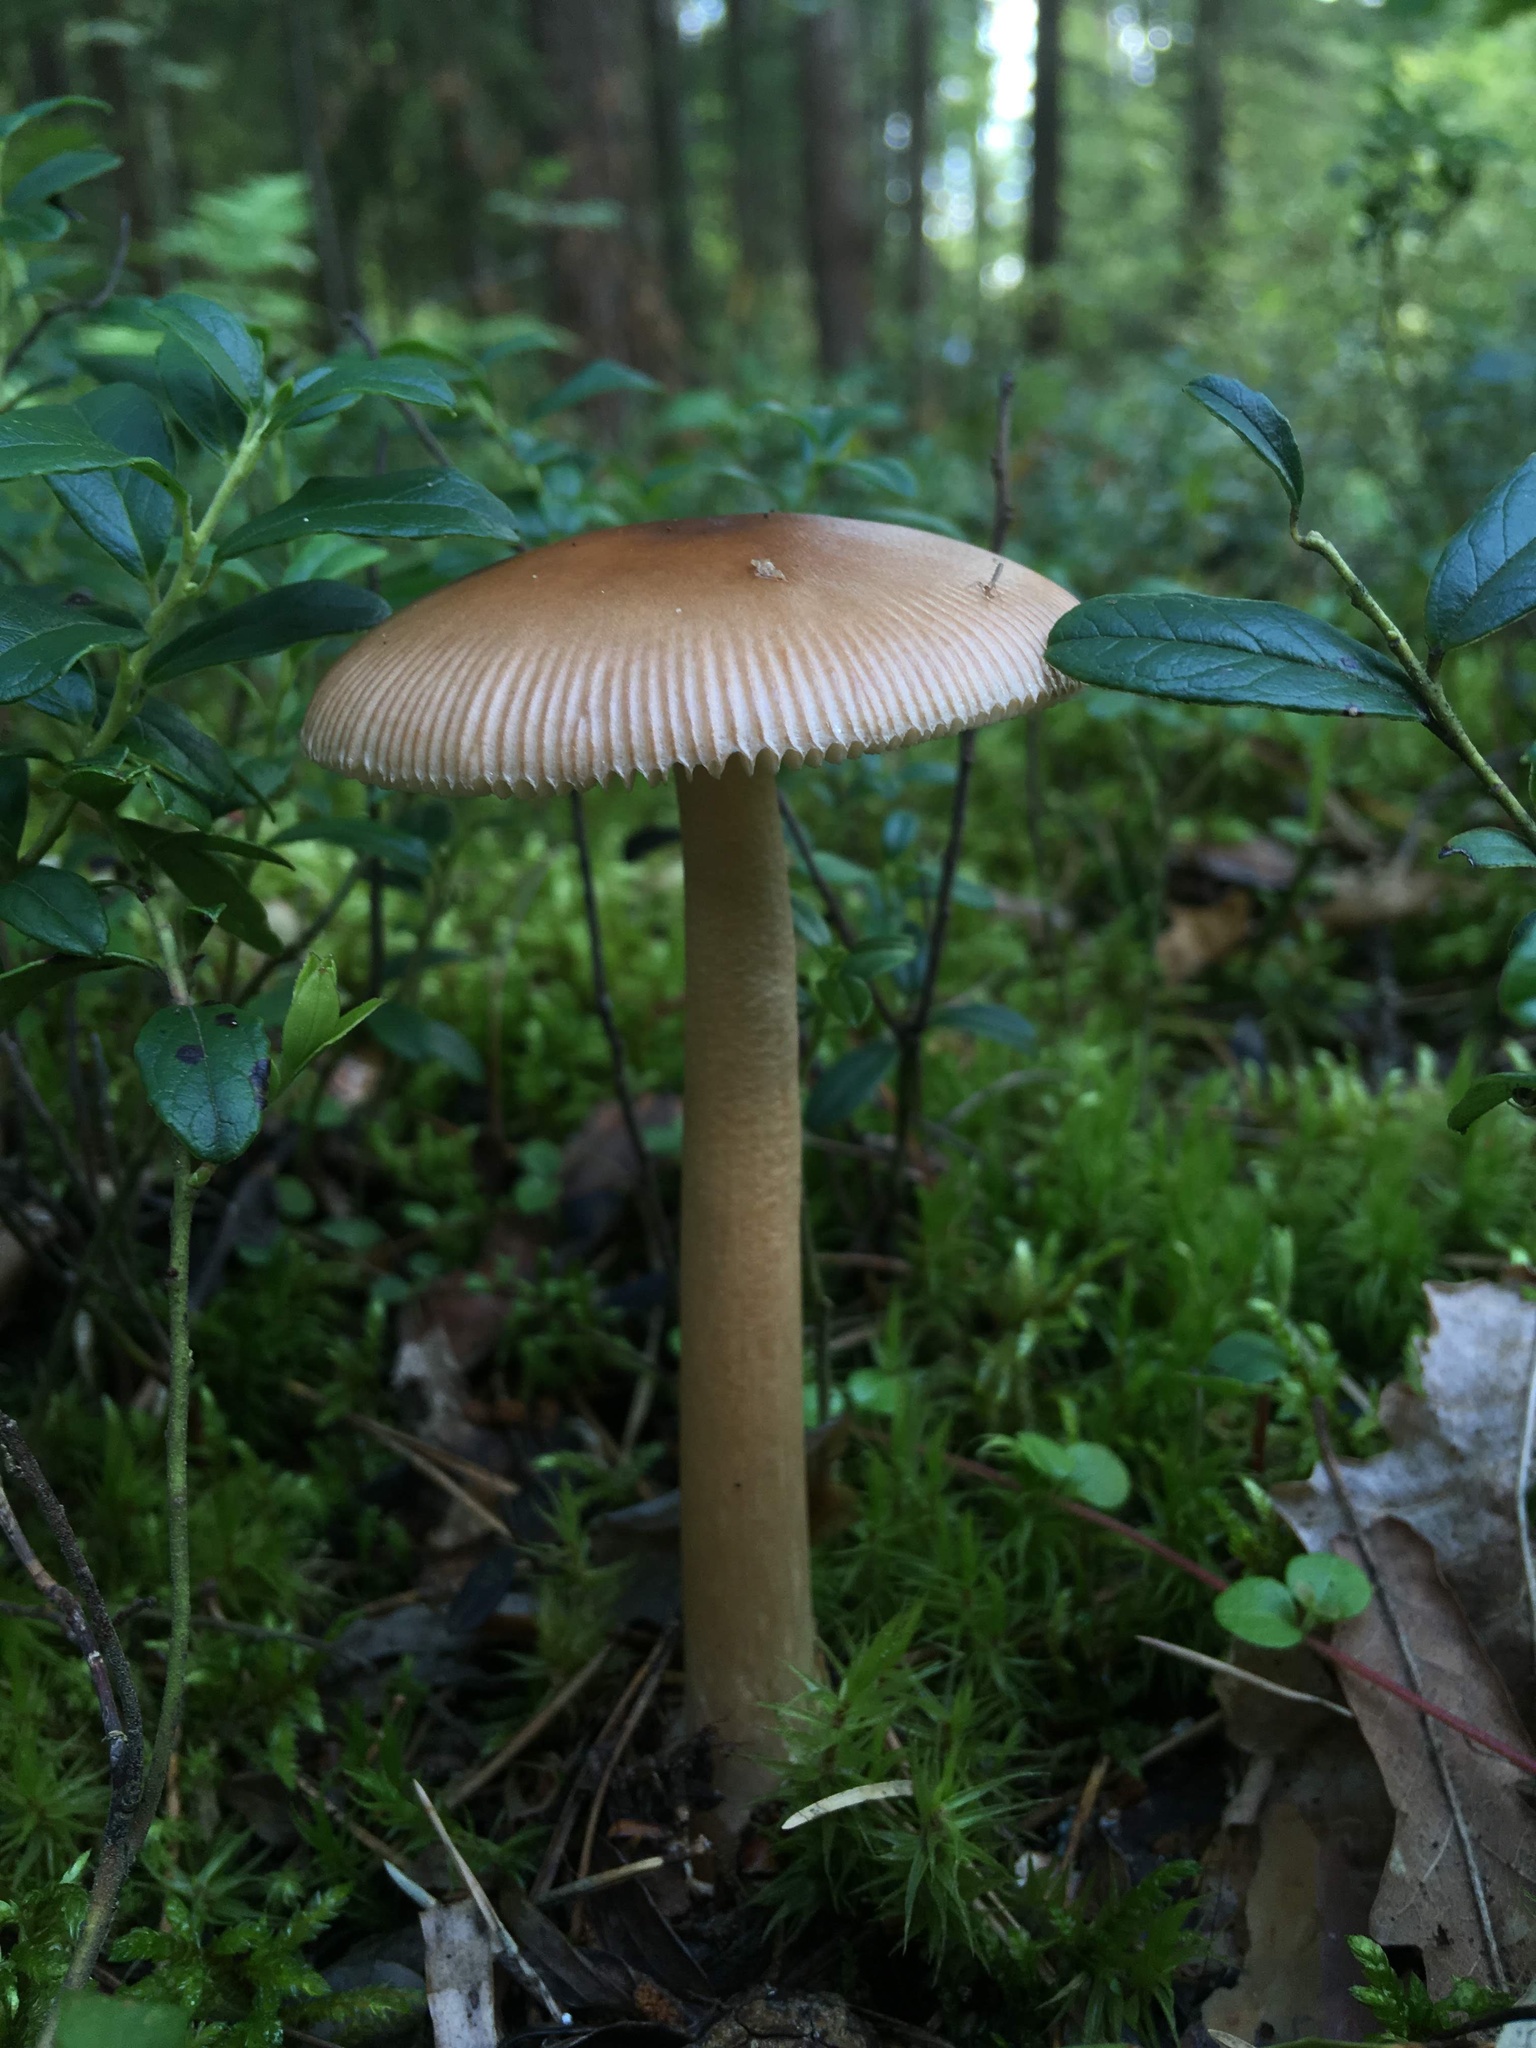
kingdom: Fungi
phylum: Basidiomycota
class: Agaricomycetes
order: Agaricales
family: Amanitaceae
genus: Amanita
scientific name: Amanita fulva
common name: Tawny grisette
